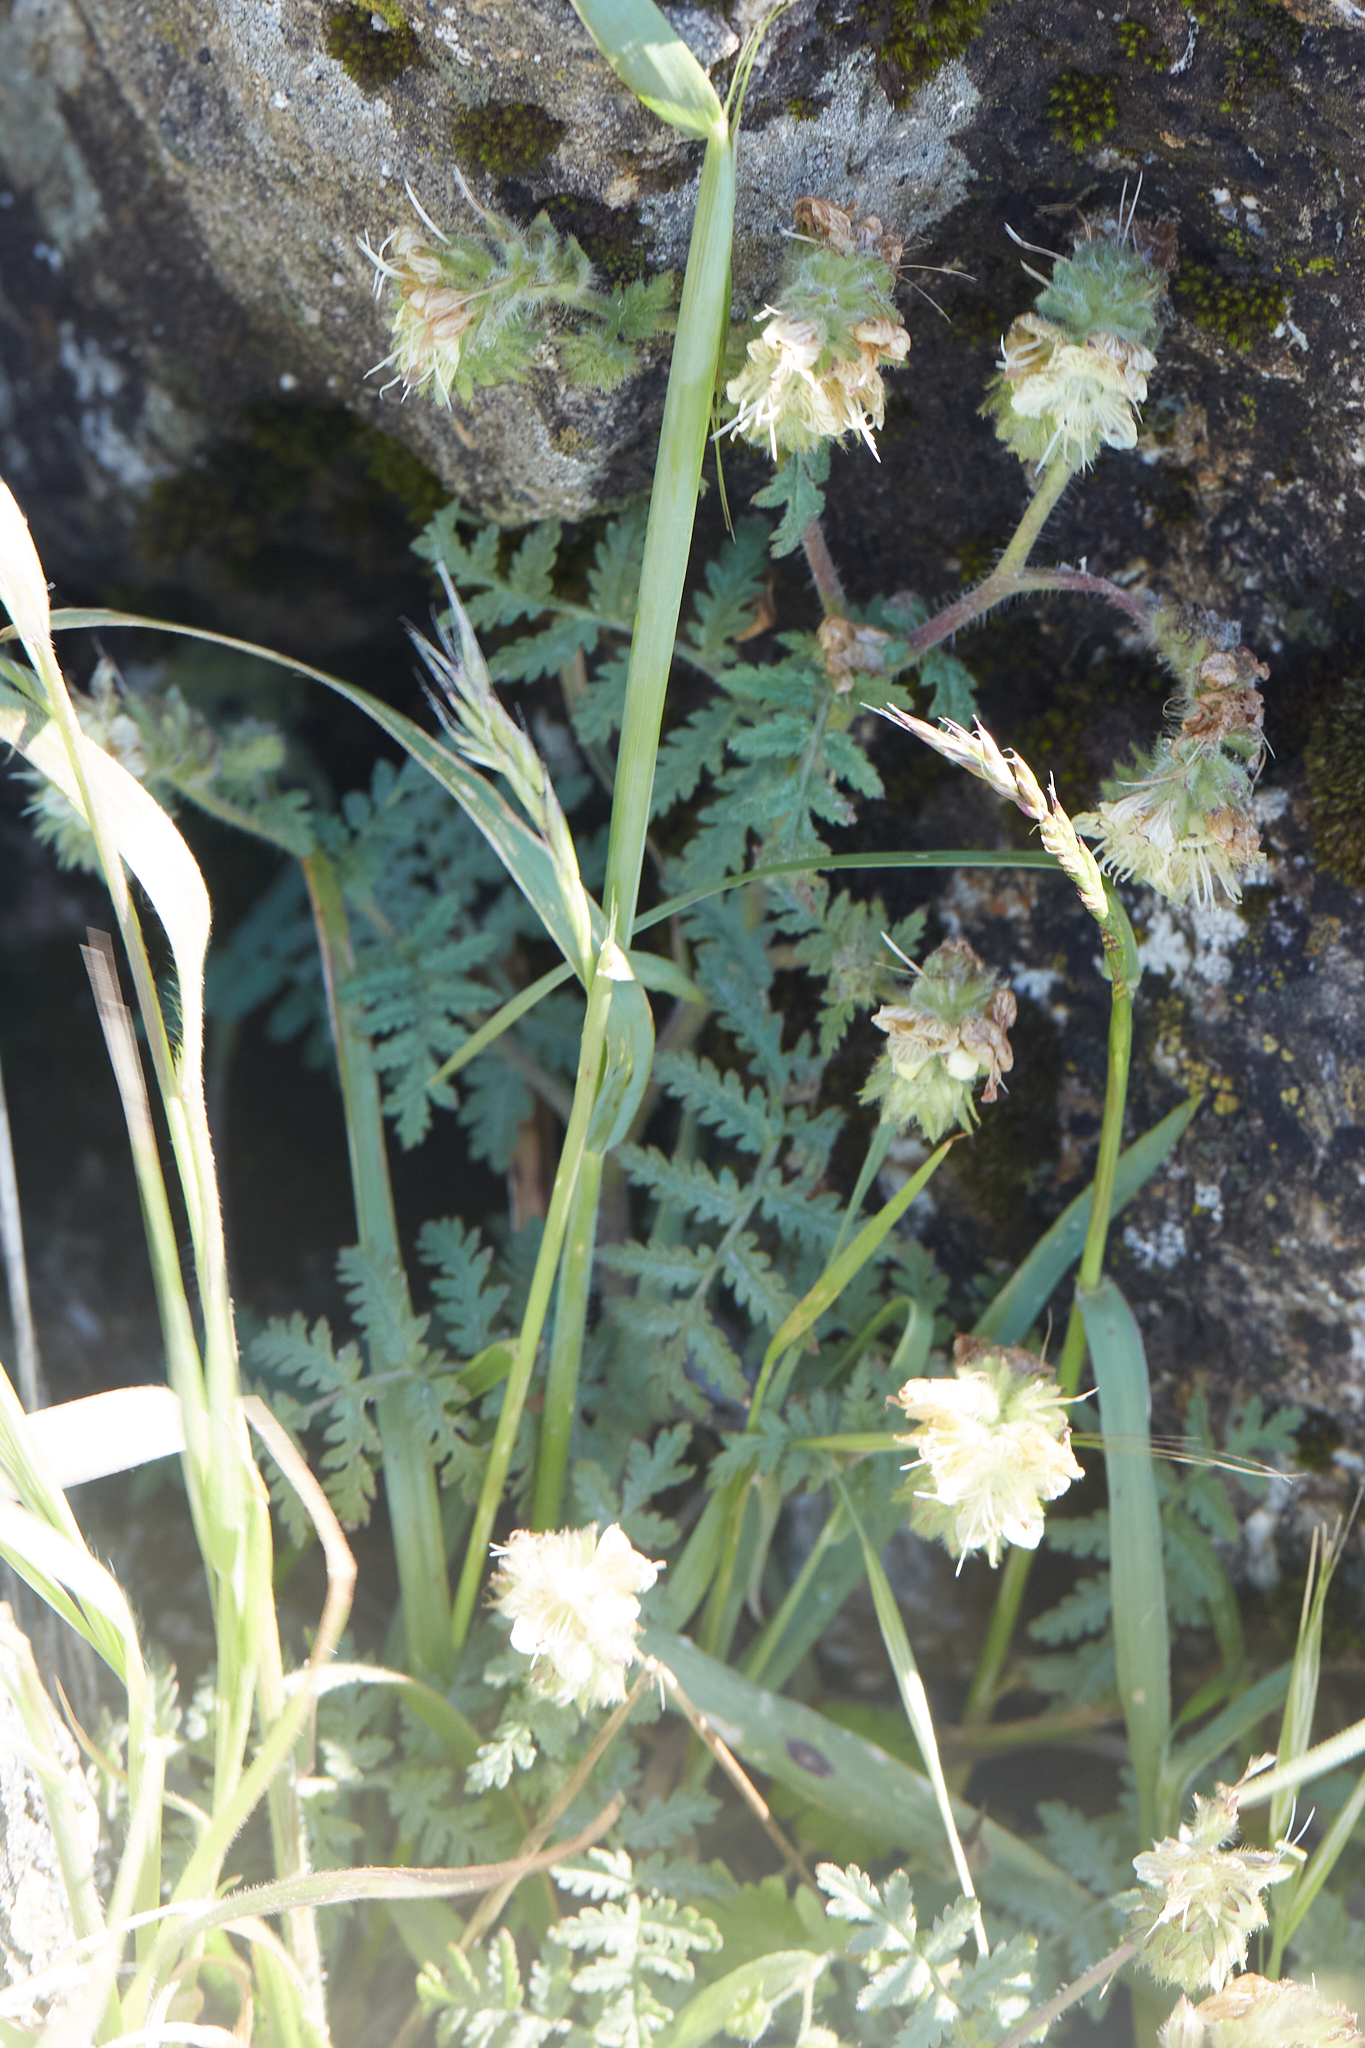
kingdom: Plantae
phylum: Tracheophyta
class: Magnoliopsida
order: Boraginales
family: Hydrophyllaceae
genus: Phacelia
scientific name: Phacelia distans
